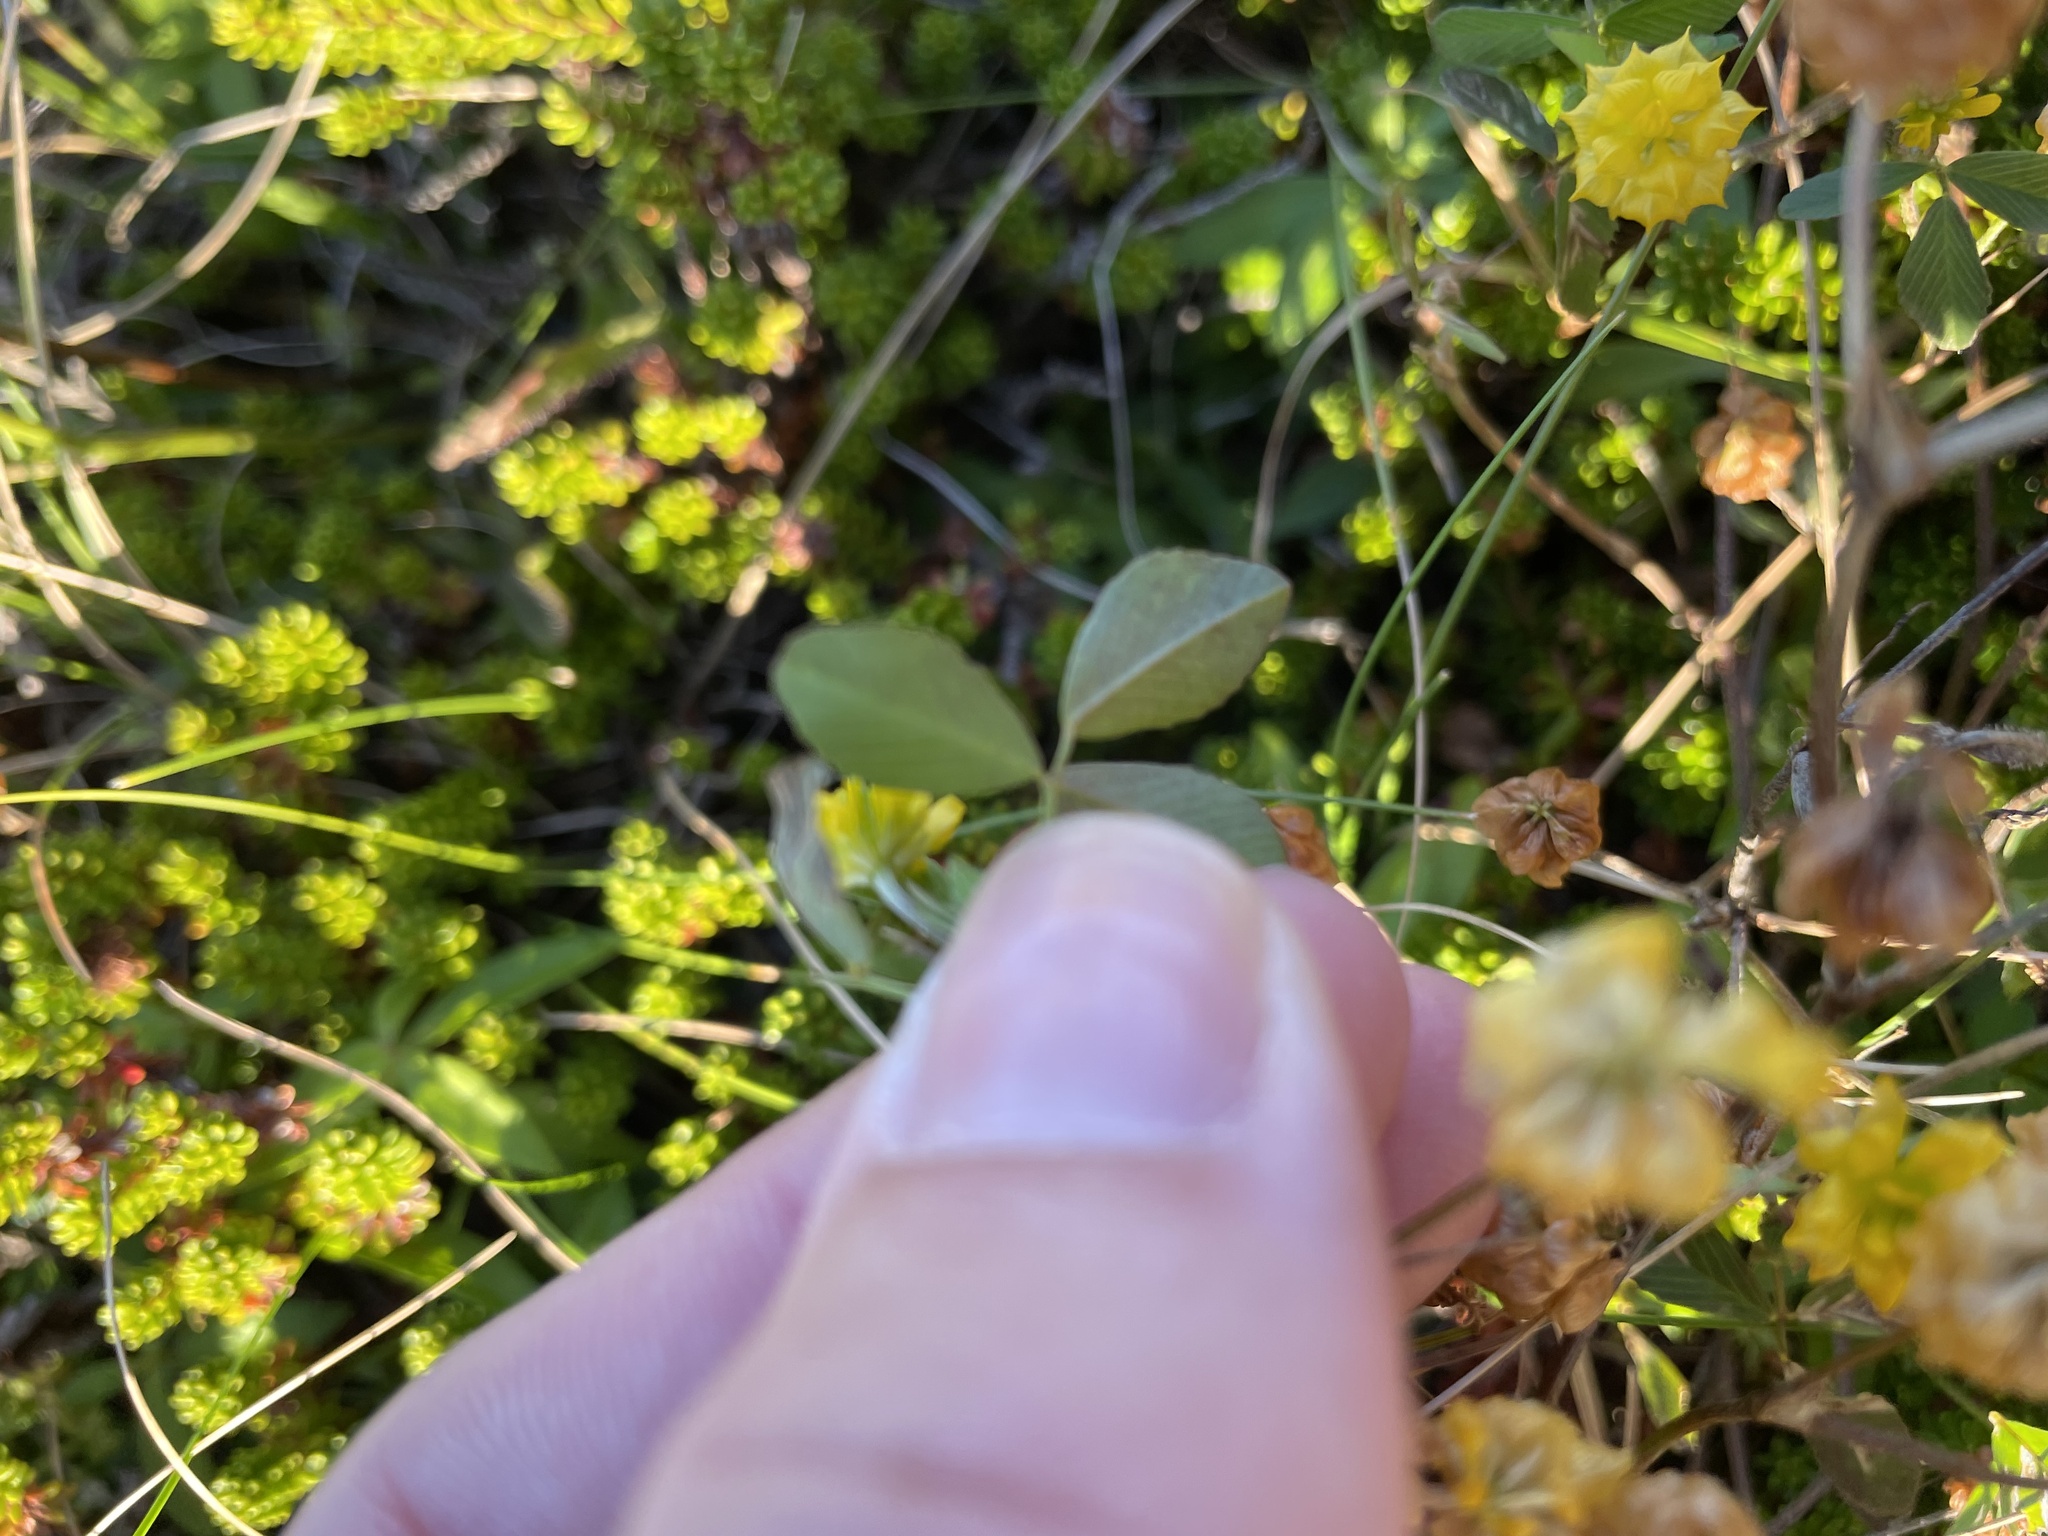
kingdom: Plantae
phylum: Tracheophyta
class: Magnoliopsida
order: Fabales
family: Fabaceae
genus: Trifolium
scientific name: Trifolium campestre
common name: Field clover
